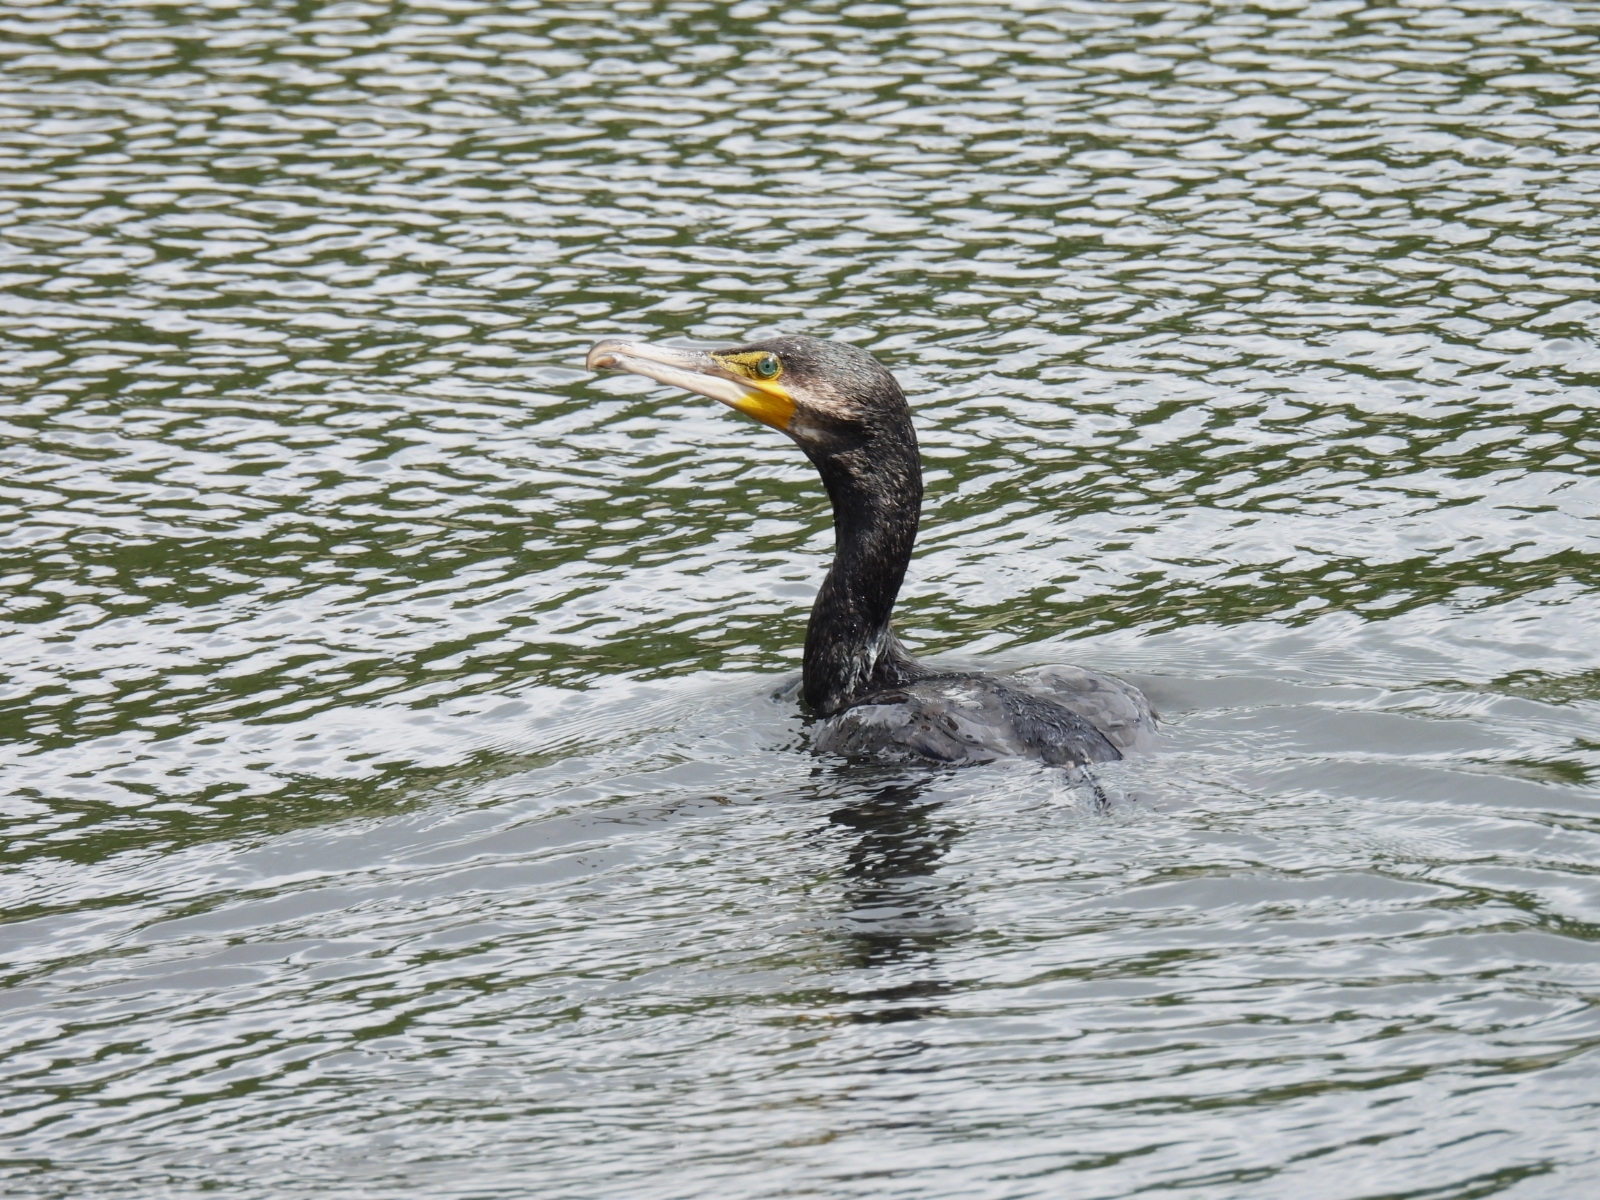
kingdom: Animalia
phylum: Chordata
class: Aves
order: Suliformes
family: Phalacrocoracidae
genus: Phalacrocorax
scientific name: Phalacrocorax carbo
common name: Great cormorant
